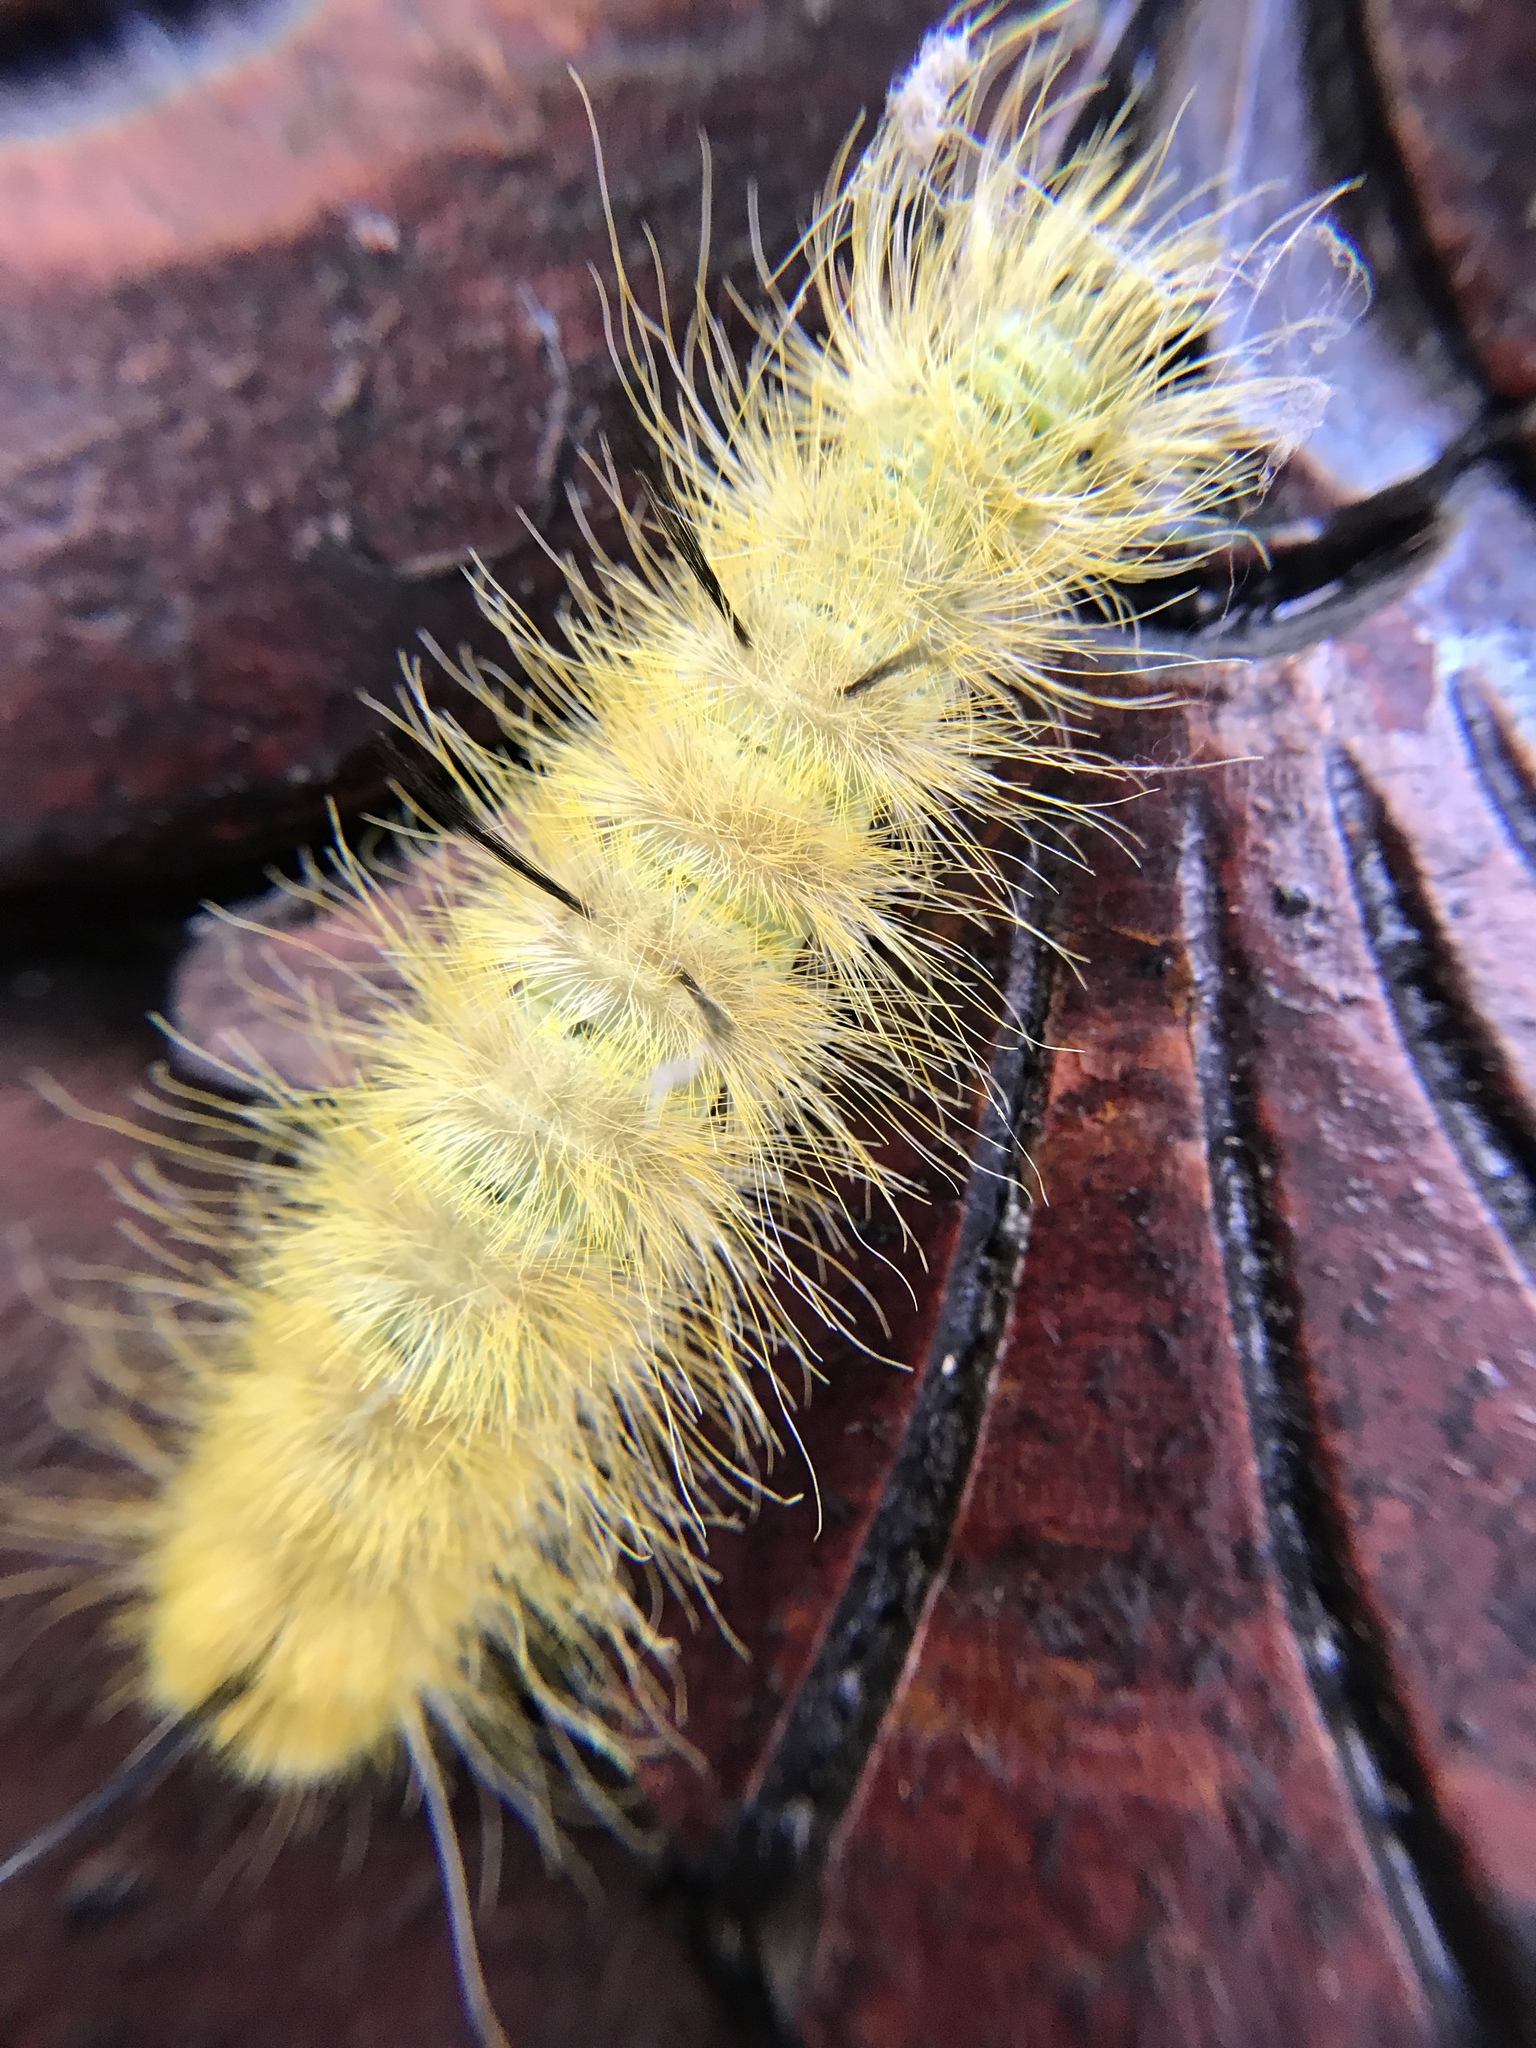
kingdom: Animalia
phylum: Arthropoda
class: Insecta
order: Lepidoptera
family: Noctuidae
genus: Acronicta
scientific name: Acronicta americana
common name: American dagger
